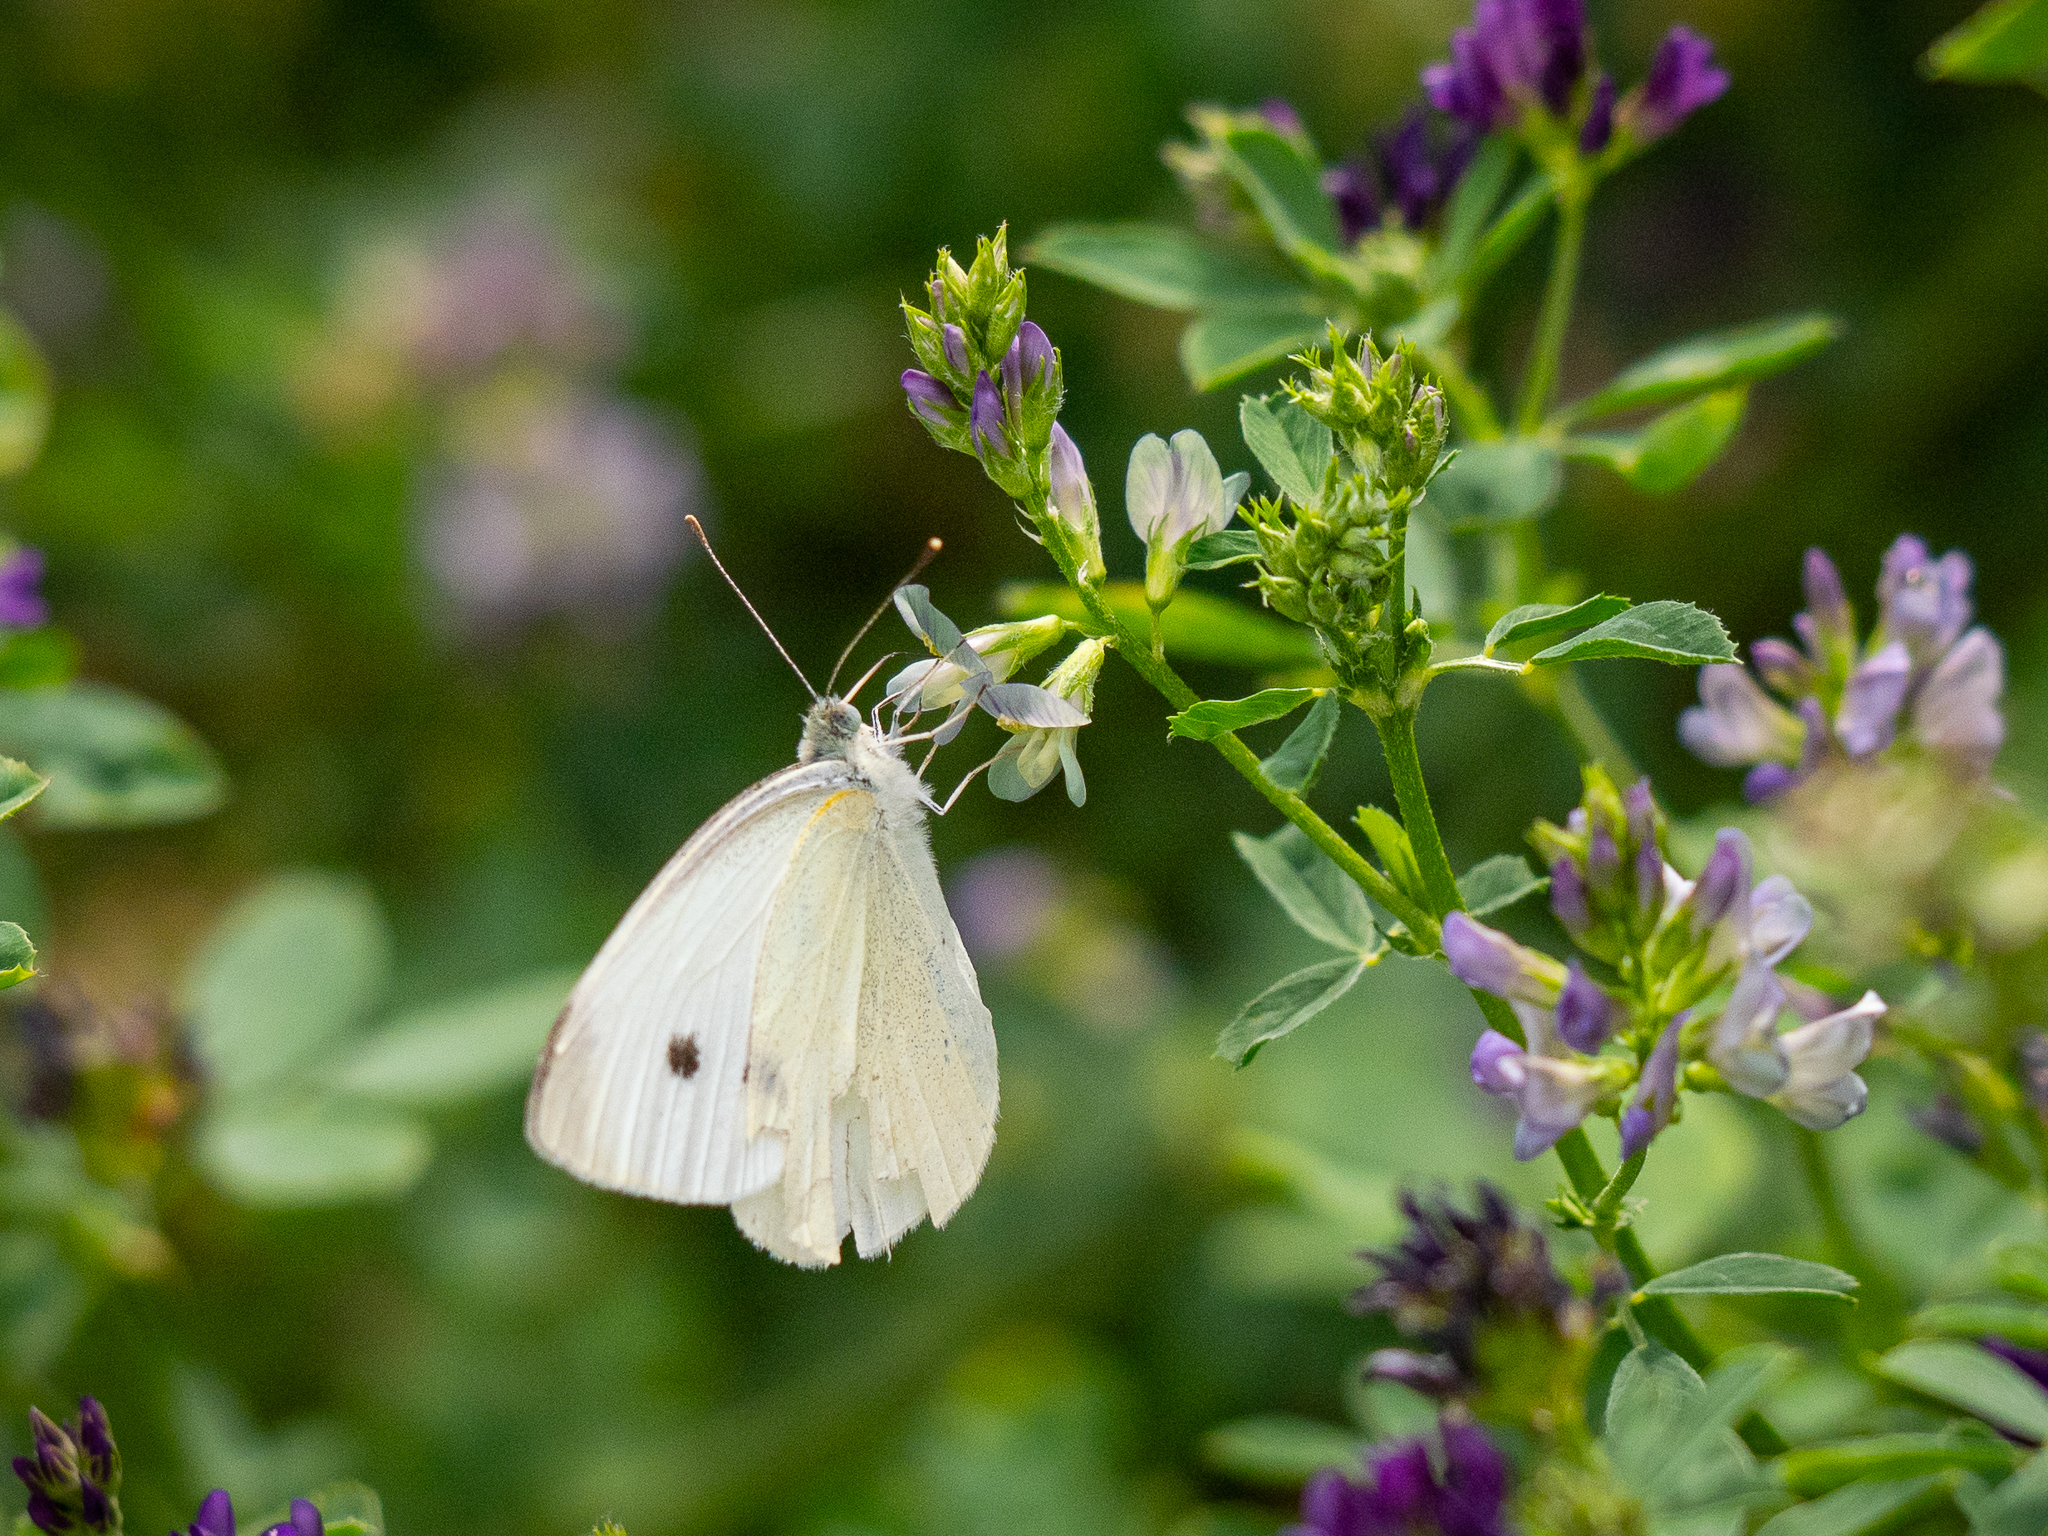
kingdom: Animalia
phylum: Arthropoda
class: Insecta
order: Lepidoptera
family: Pieridae
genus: Pieris
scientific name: Pieris rapae
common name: Small white
